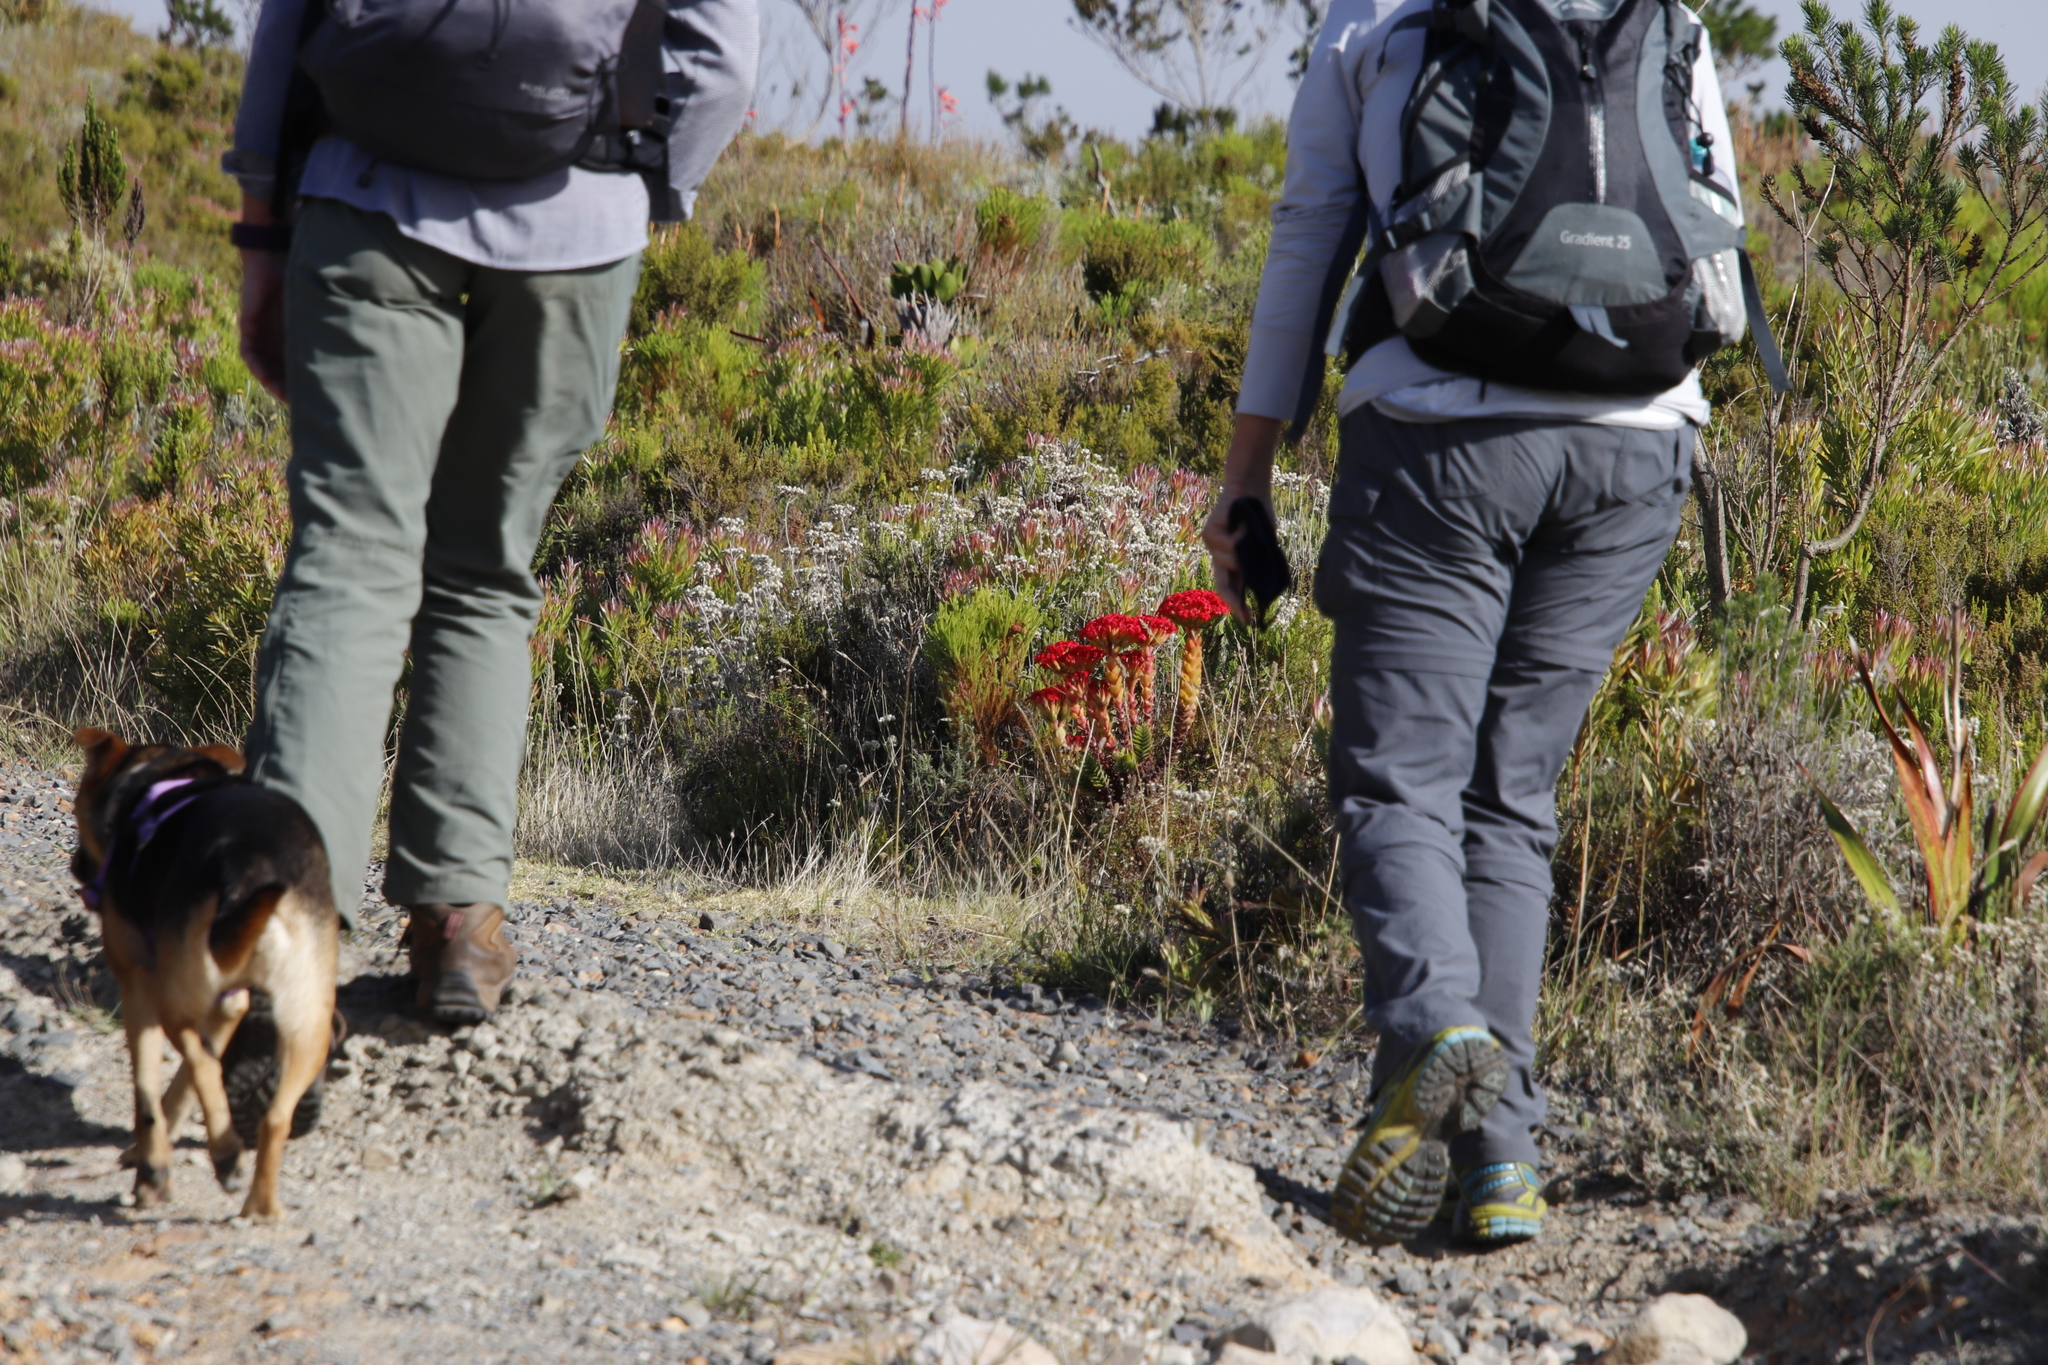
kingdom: Plantae
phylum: Tracheophyta
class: Magnoliopsida
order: Saxifragales
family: Crassulaceae
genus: Crassula
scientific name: Crassula coccinea
